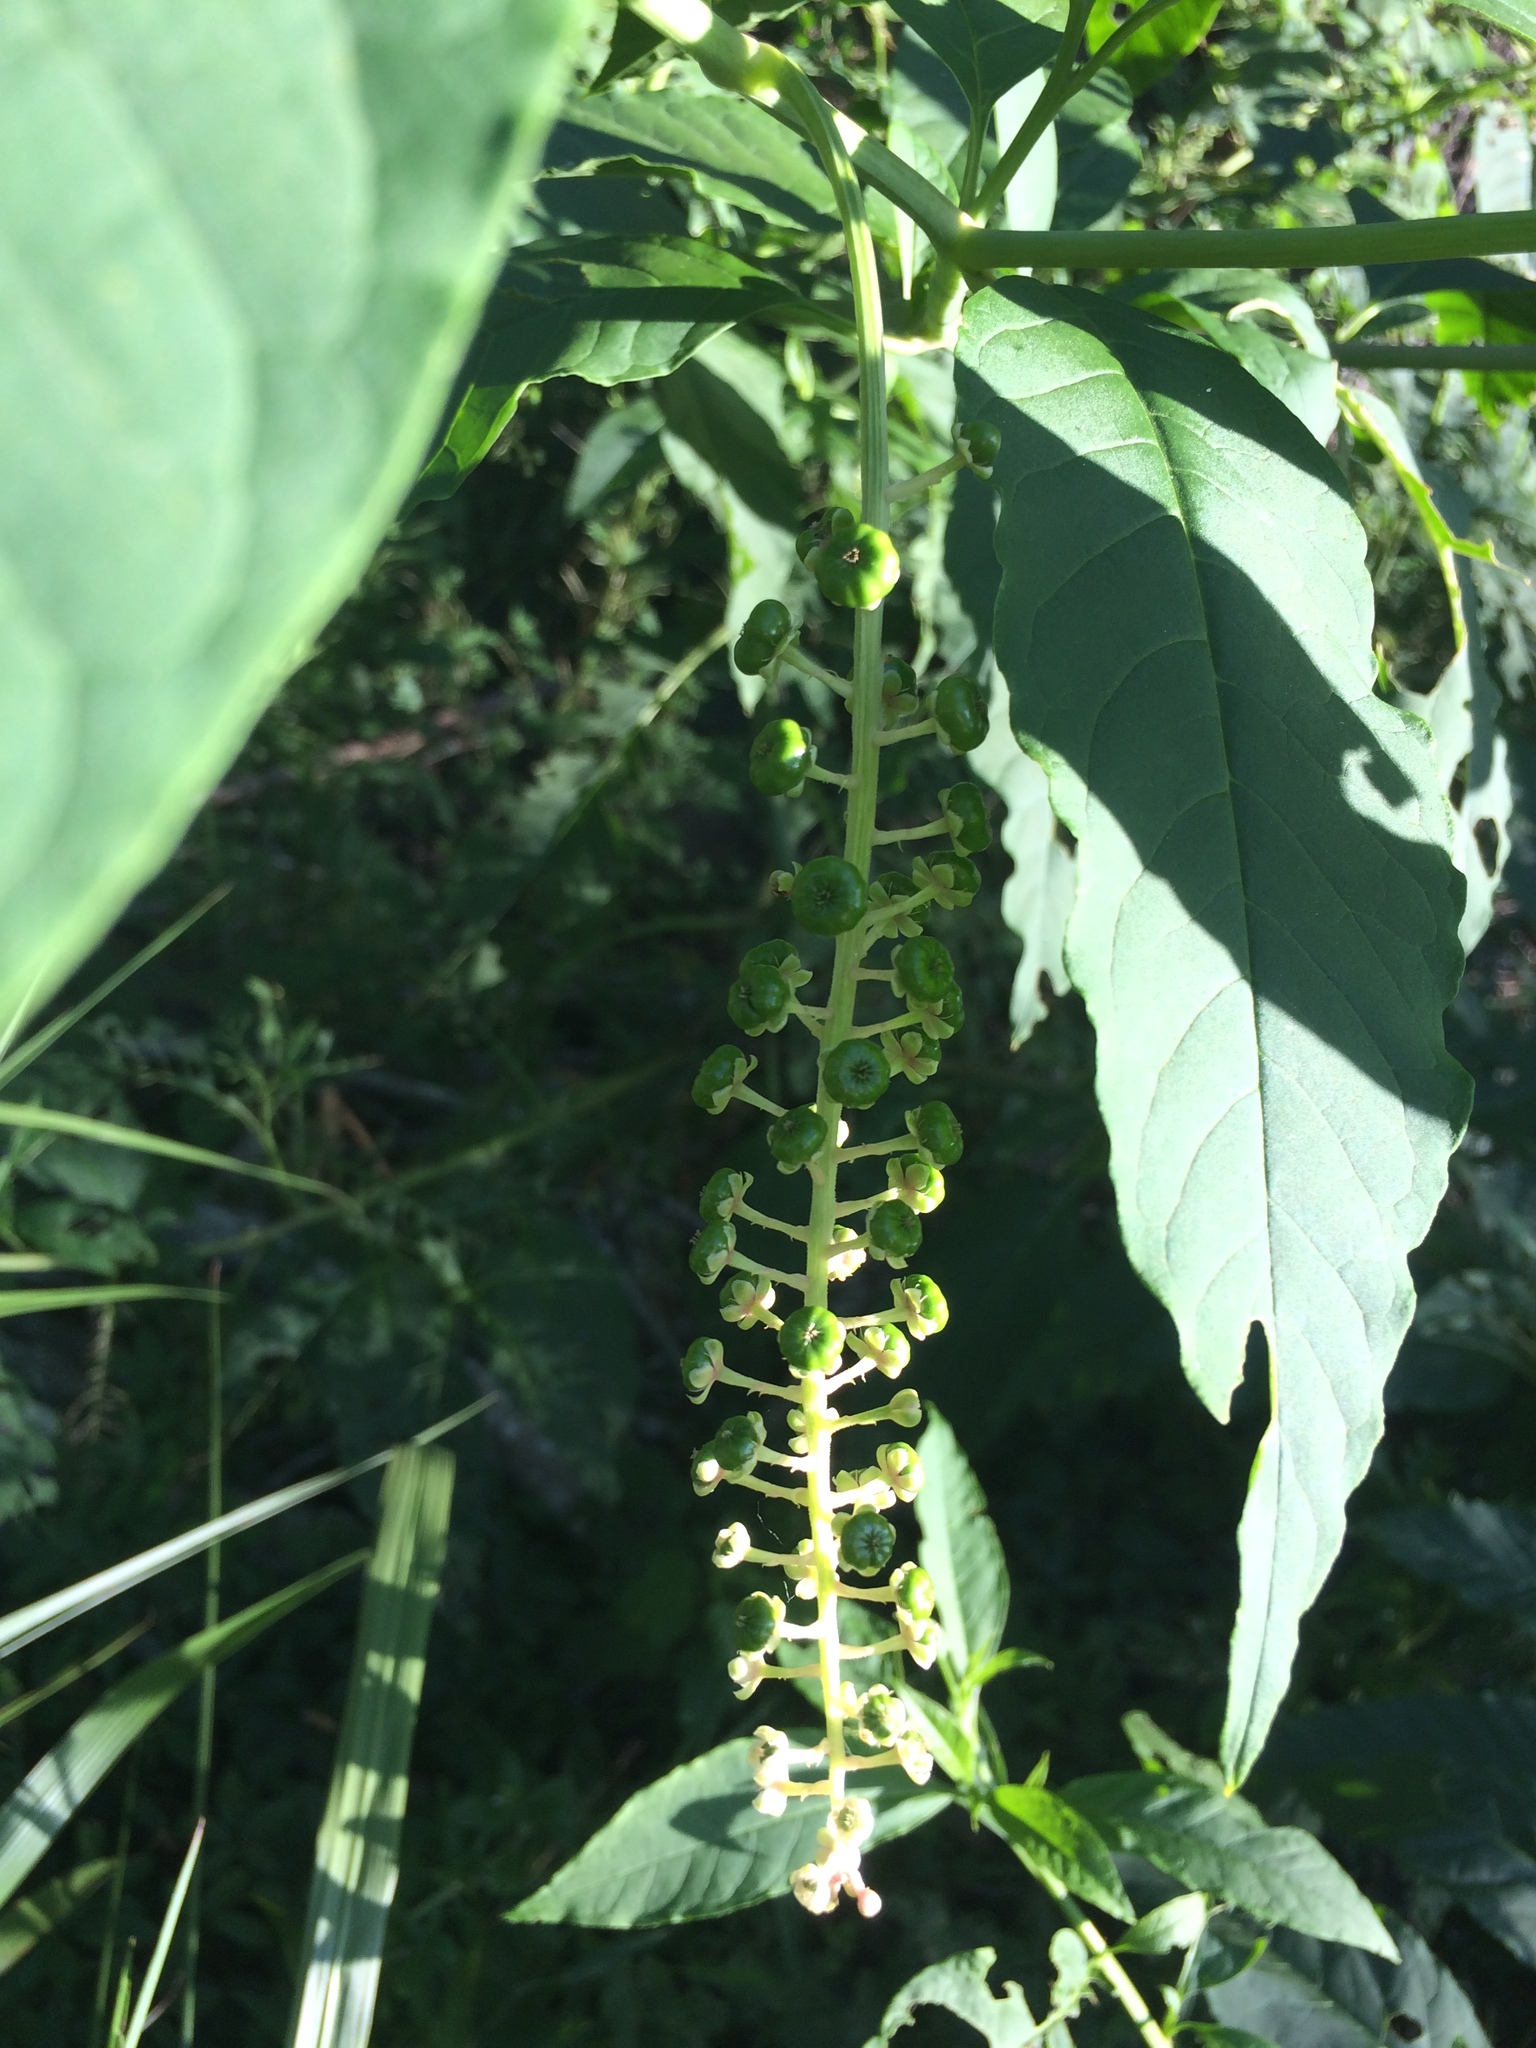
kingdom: Plantae
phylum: Tracheophyta
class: Magnoliopsida
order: Caryophyllales
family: Phytolaccaceae
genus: Phytolacca
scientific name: Phytolacca americana
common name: American pokeweed
